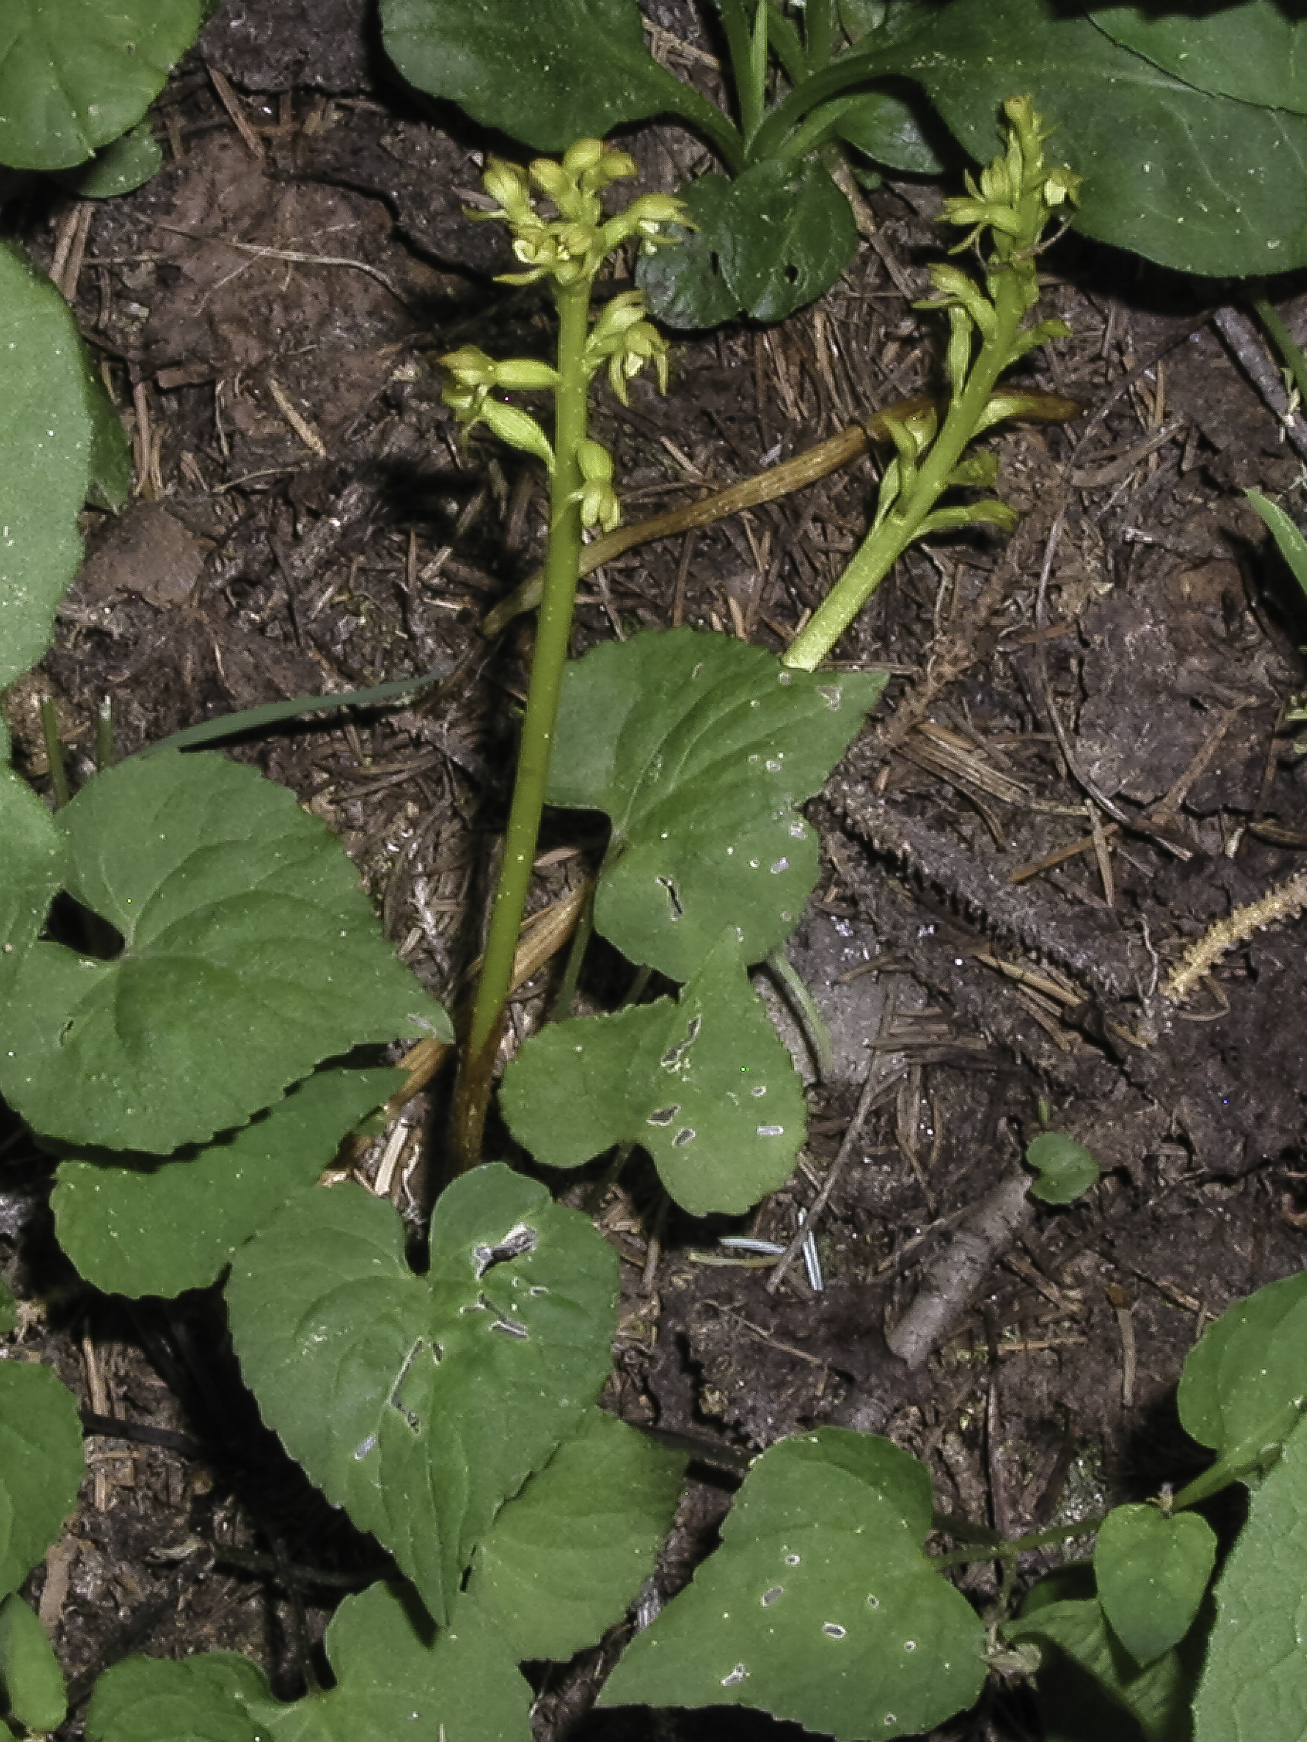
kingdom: Plantae
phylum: Tracheophyta
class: Liliopsida
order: Asparagales
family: Orchidaceae
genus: Corallorhiza
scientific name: Corallorhiza trifida
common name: Yellow coralroot
